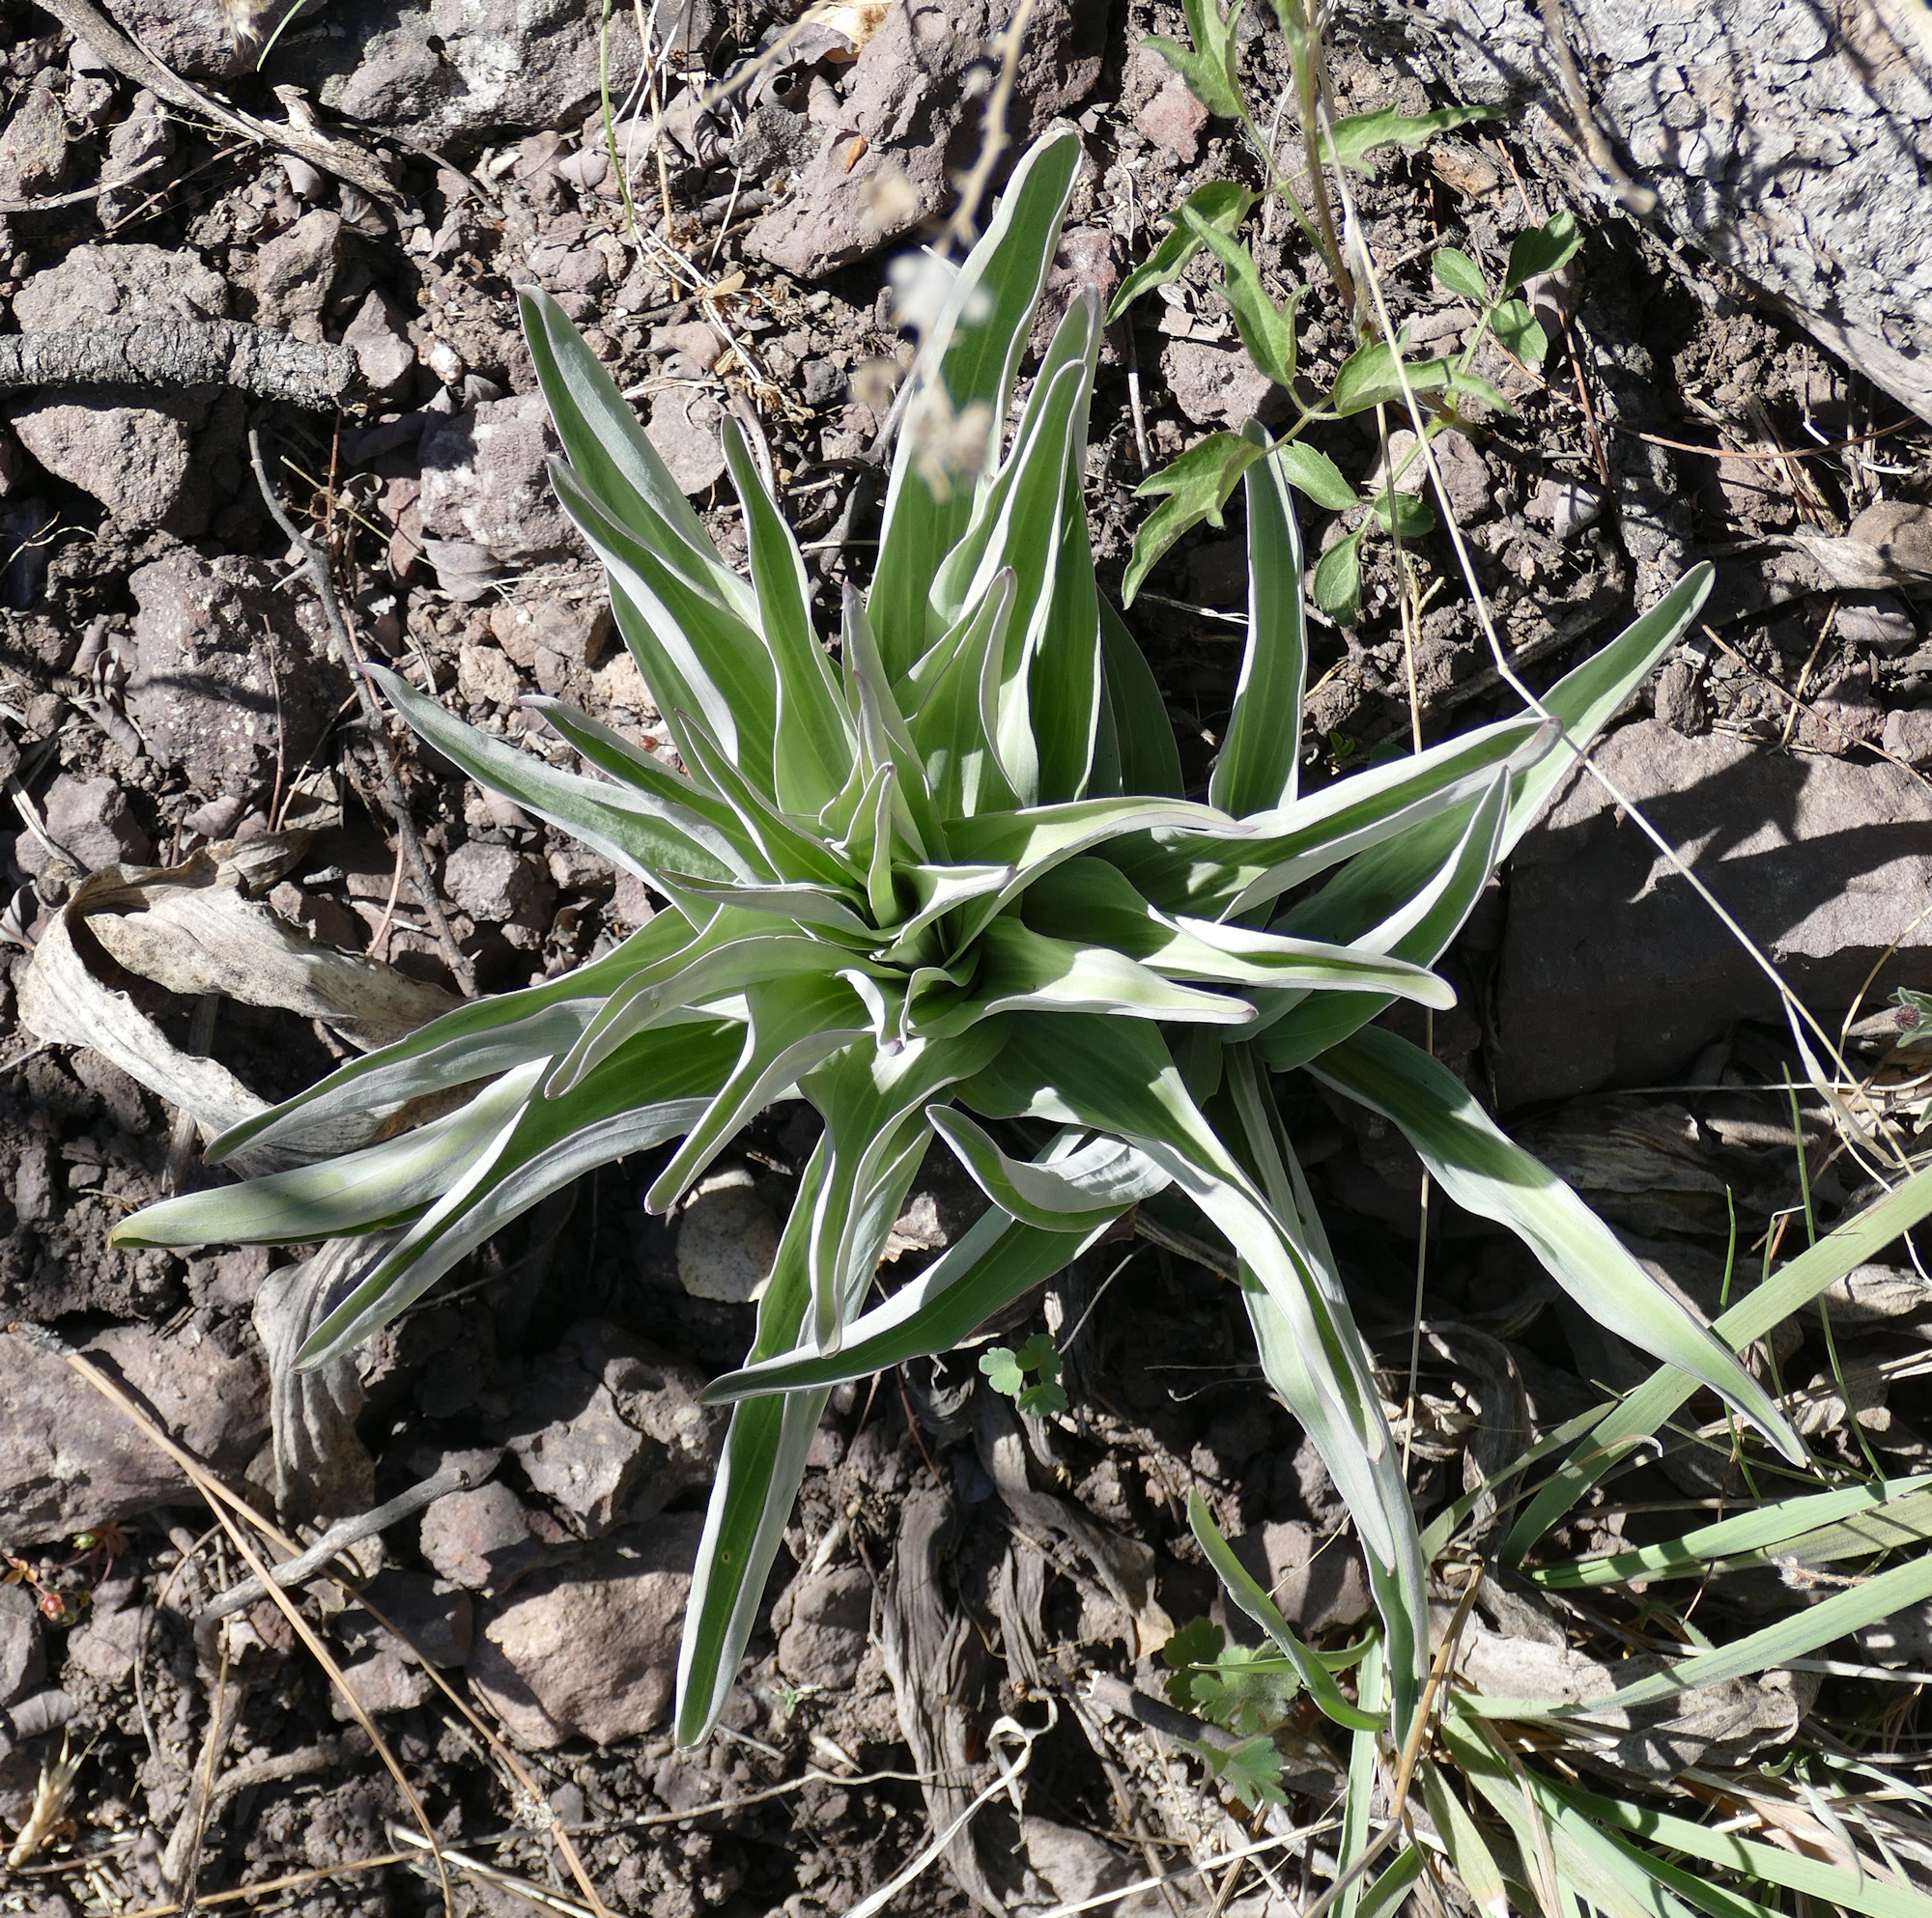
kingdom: Plantae
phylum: Tracheophyta
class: Magnoliopsida
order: Gentianales
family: Gentianaceae
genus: Frasera
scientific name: Frasera speciosa
